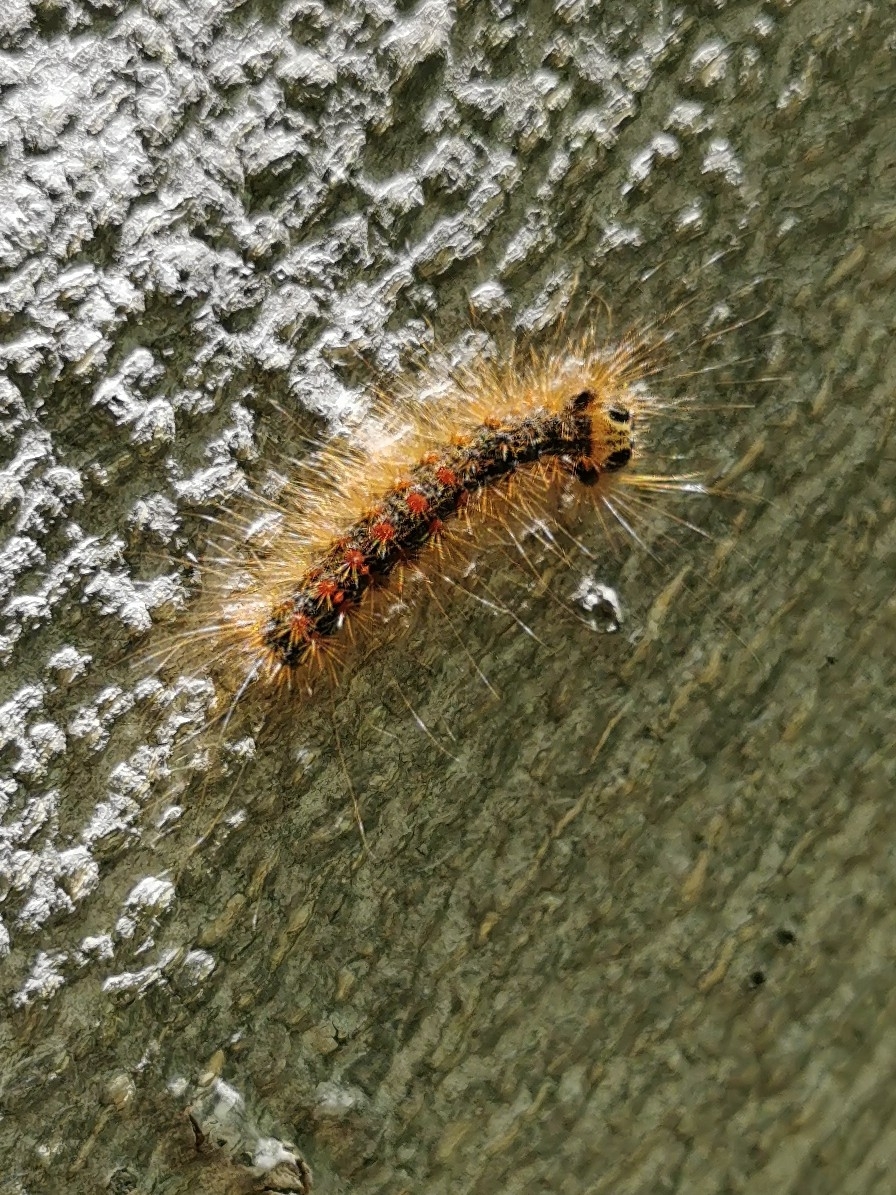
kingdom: Animalia
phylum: Arthropoda
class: Insecta
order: Lepidoptera
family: Erebidae
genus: Lymantria
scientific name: Lymantria dispar
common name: Gypsy moth
